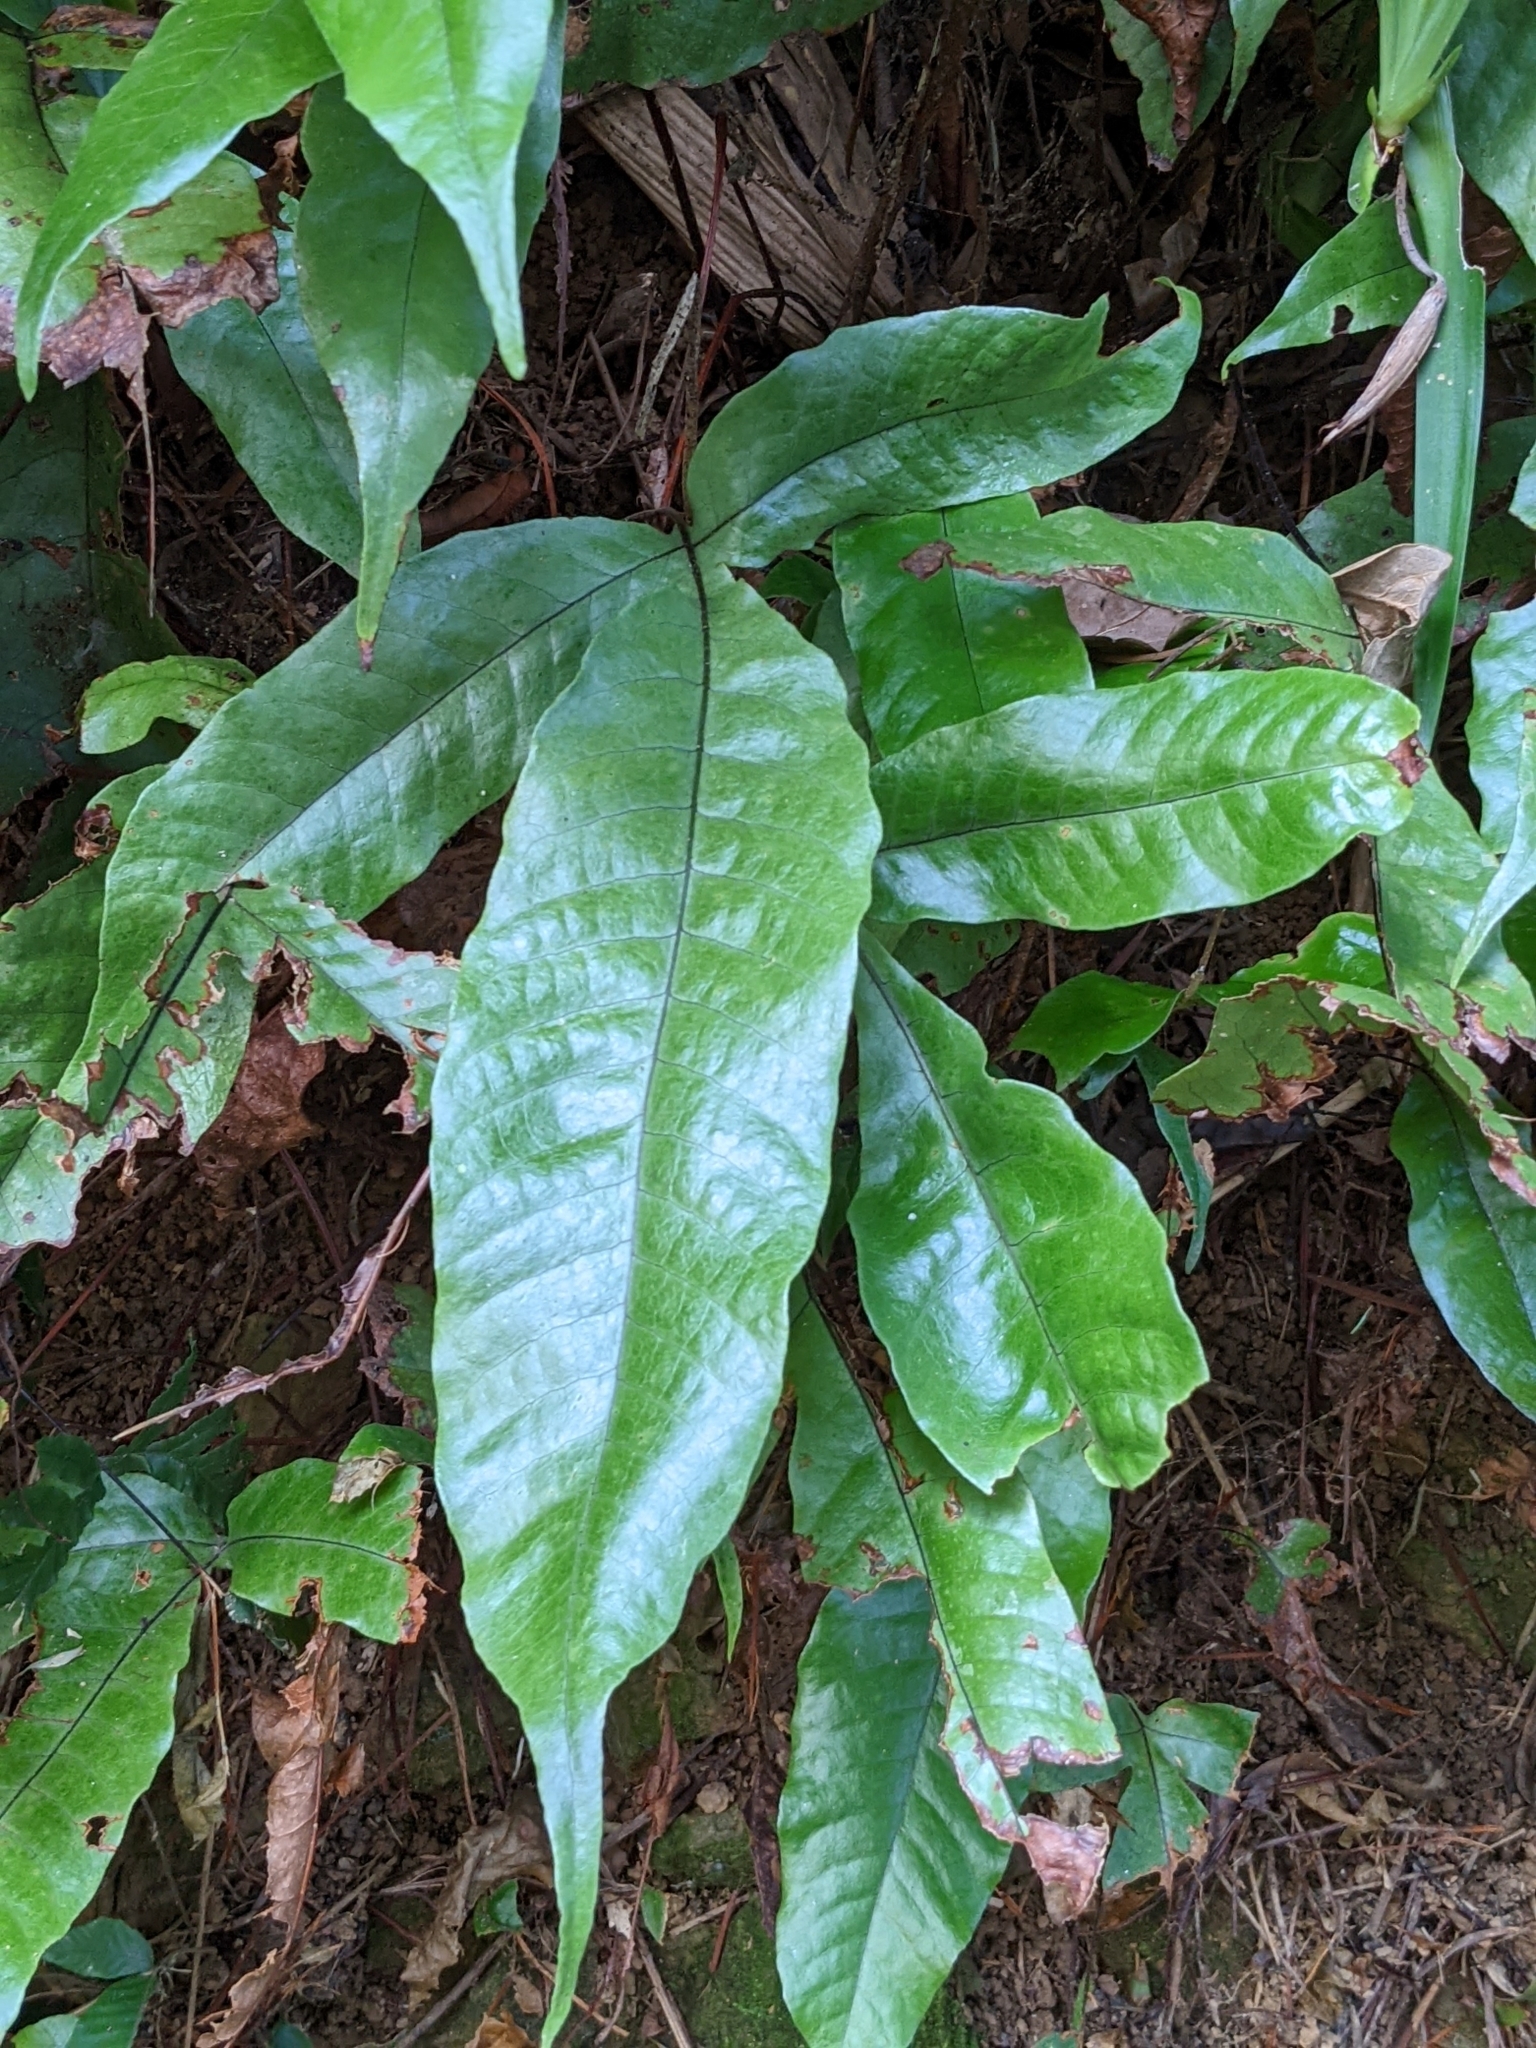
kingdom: Plantae
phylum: Tracheophyta
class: Polypodiopsida
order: Polypodiales
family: Tectariaceae
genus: Tectaria
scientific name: Tectaria harlandii
